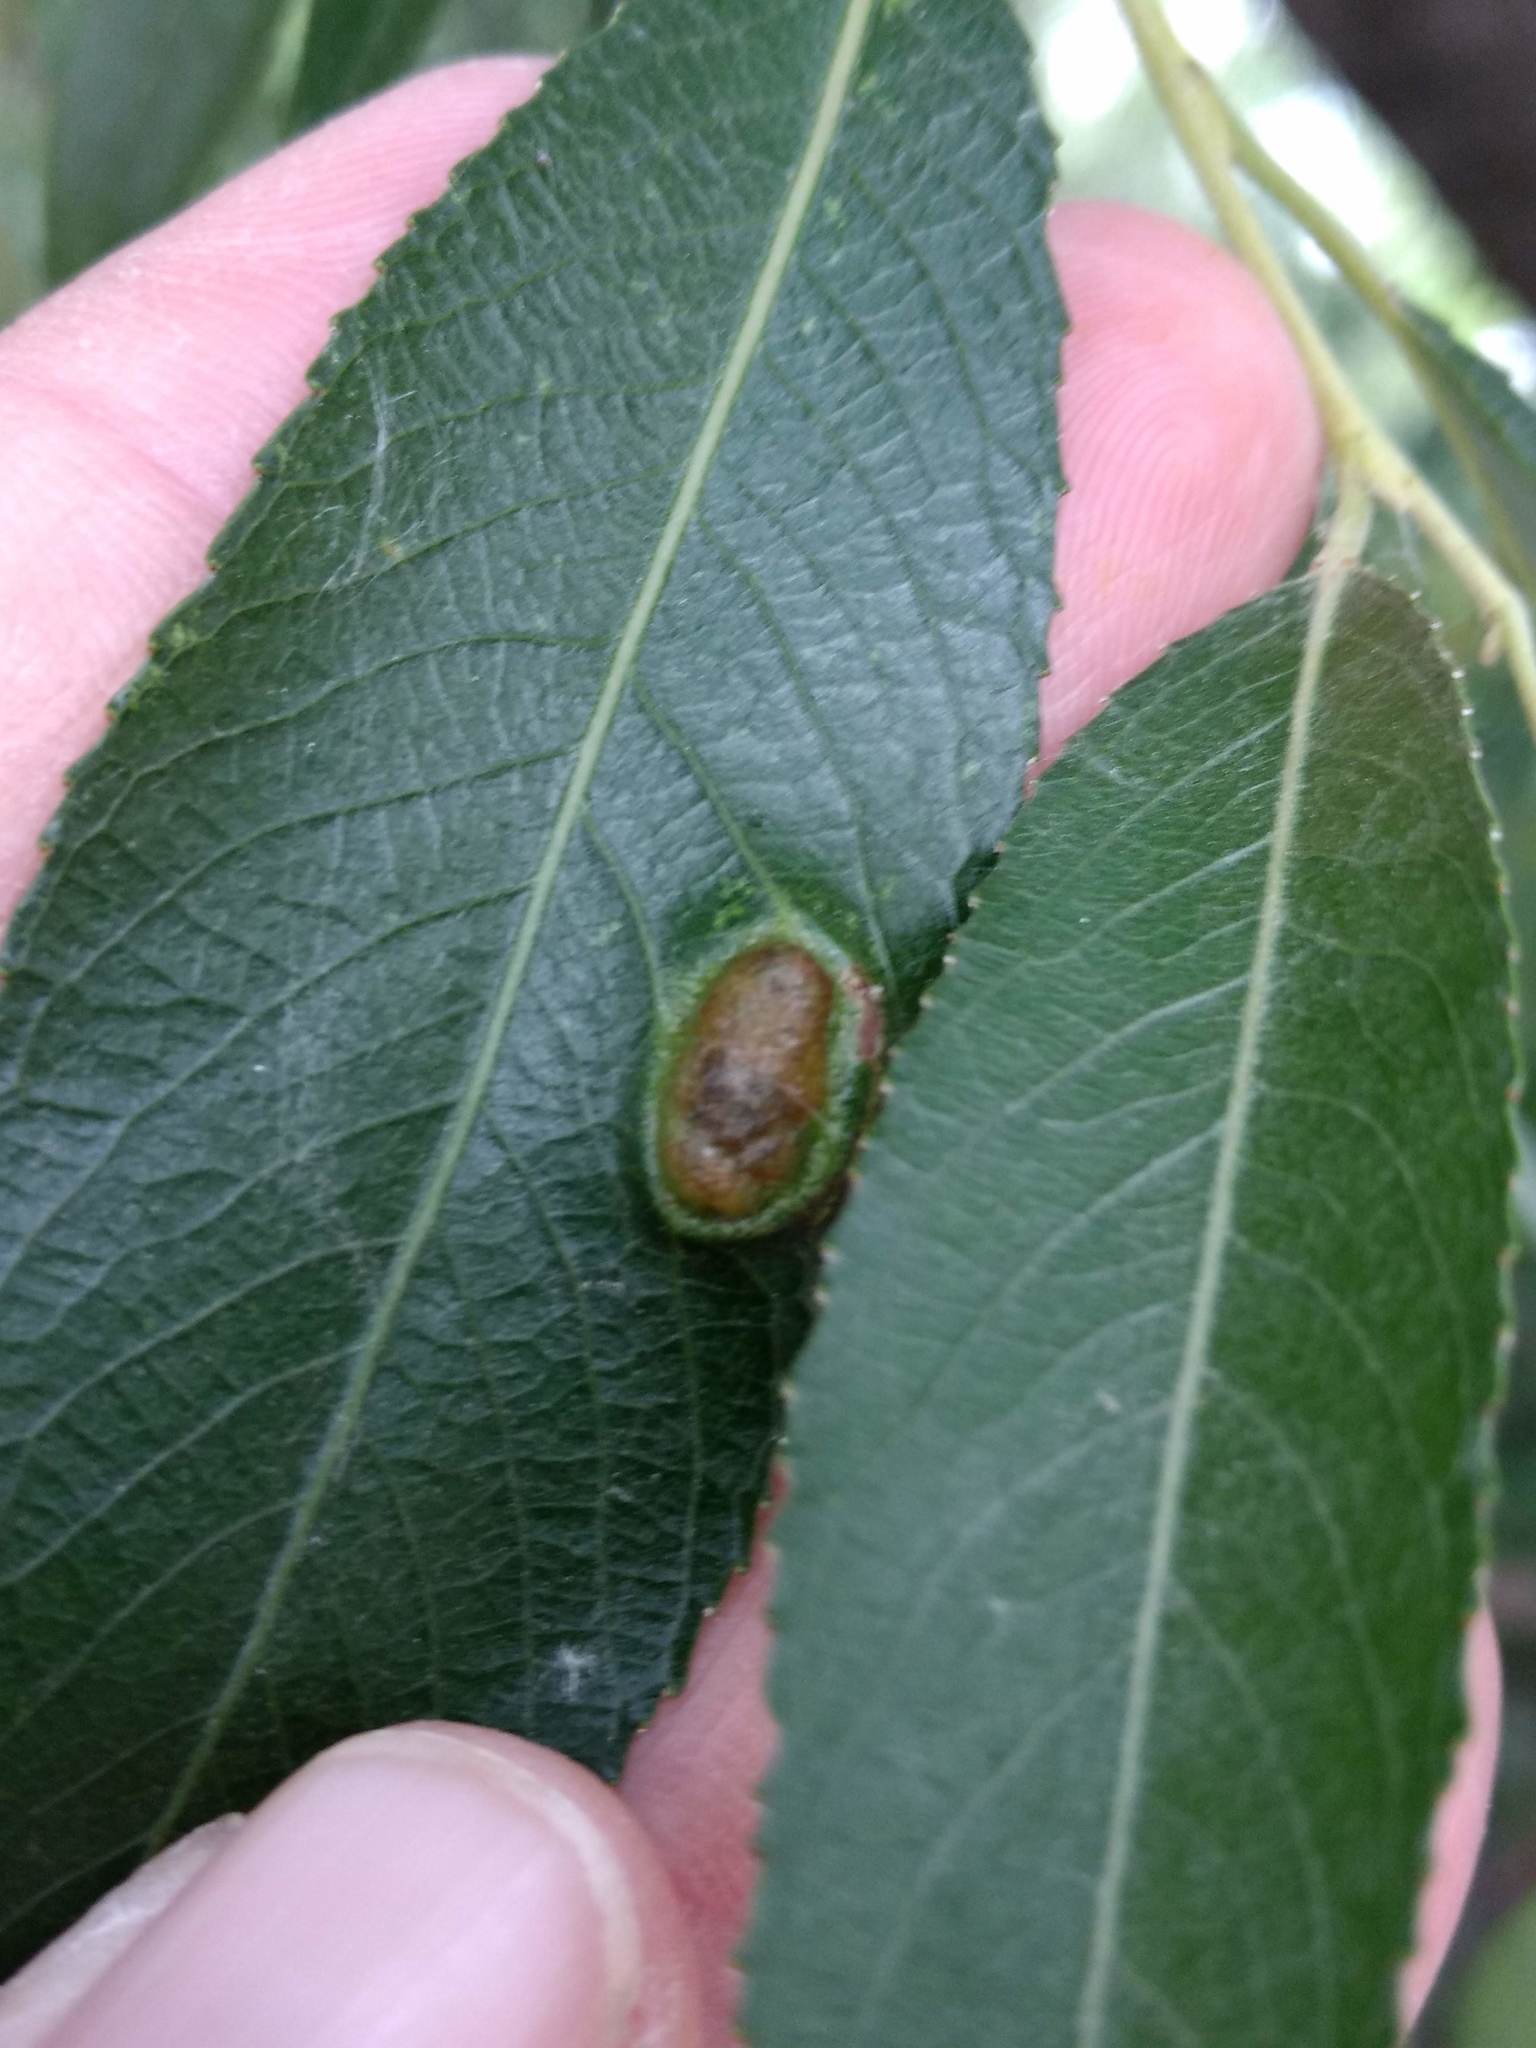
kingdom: Animalia
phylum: Arthropoda
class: Insecta
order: Hymenoptera
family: Tenthredinidae
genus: Pontania
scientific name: Pontania proxima
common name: Common sawfly
